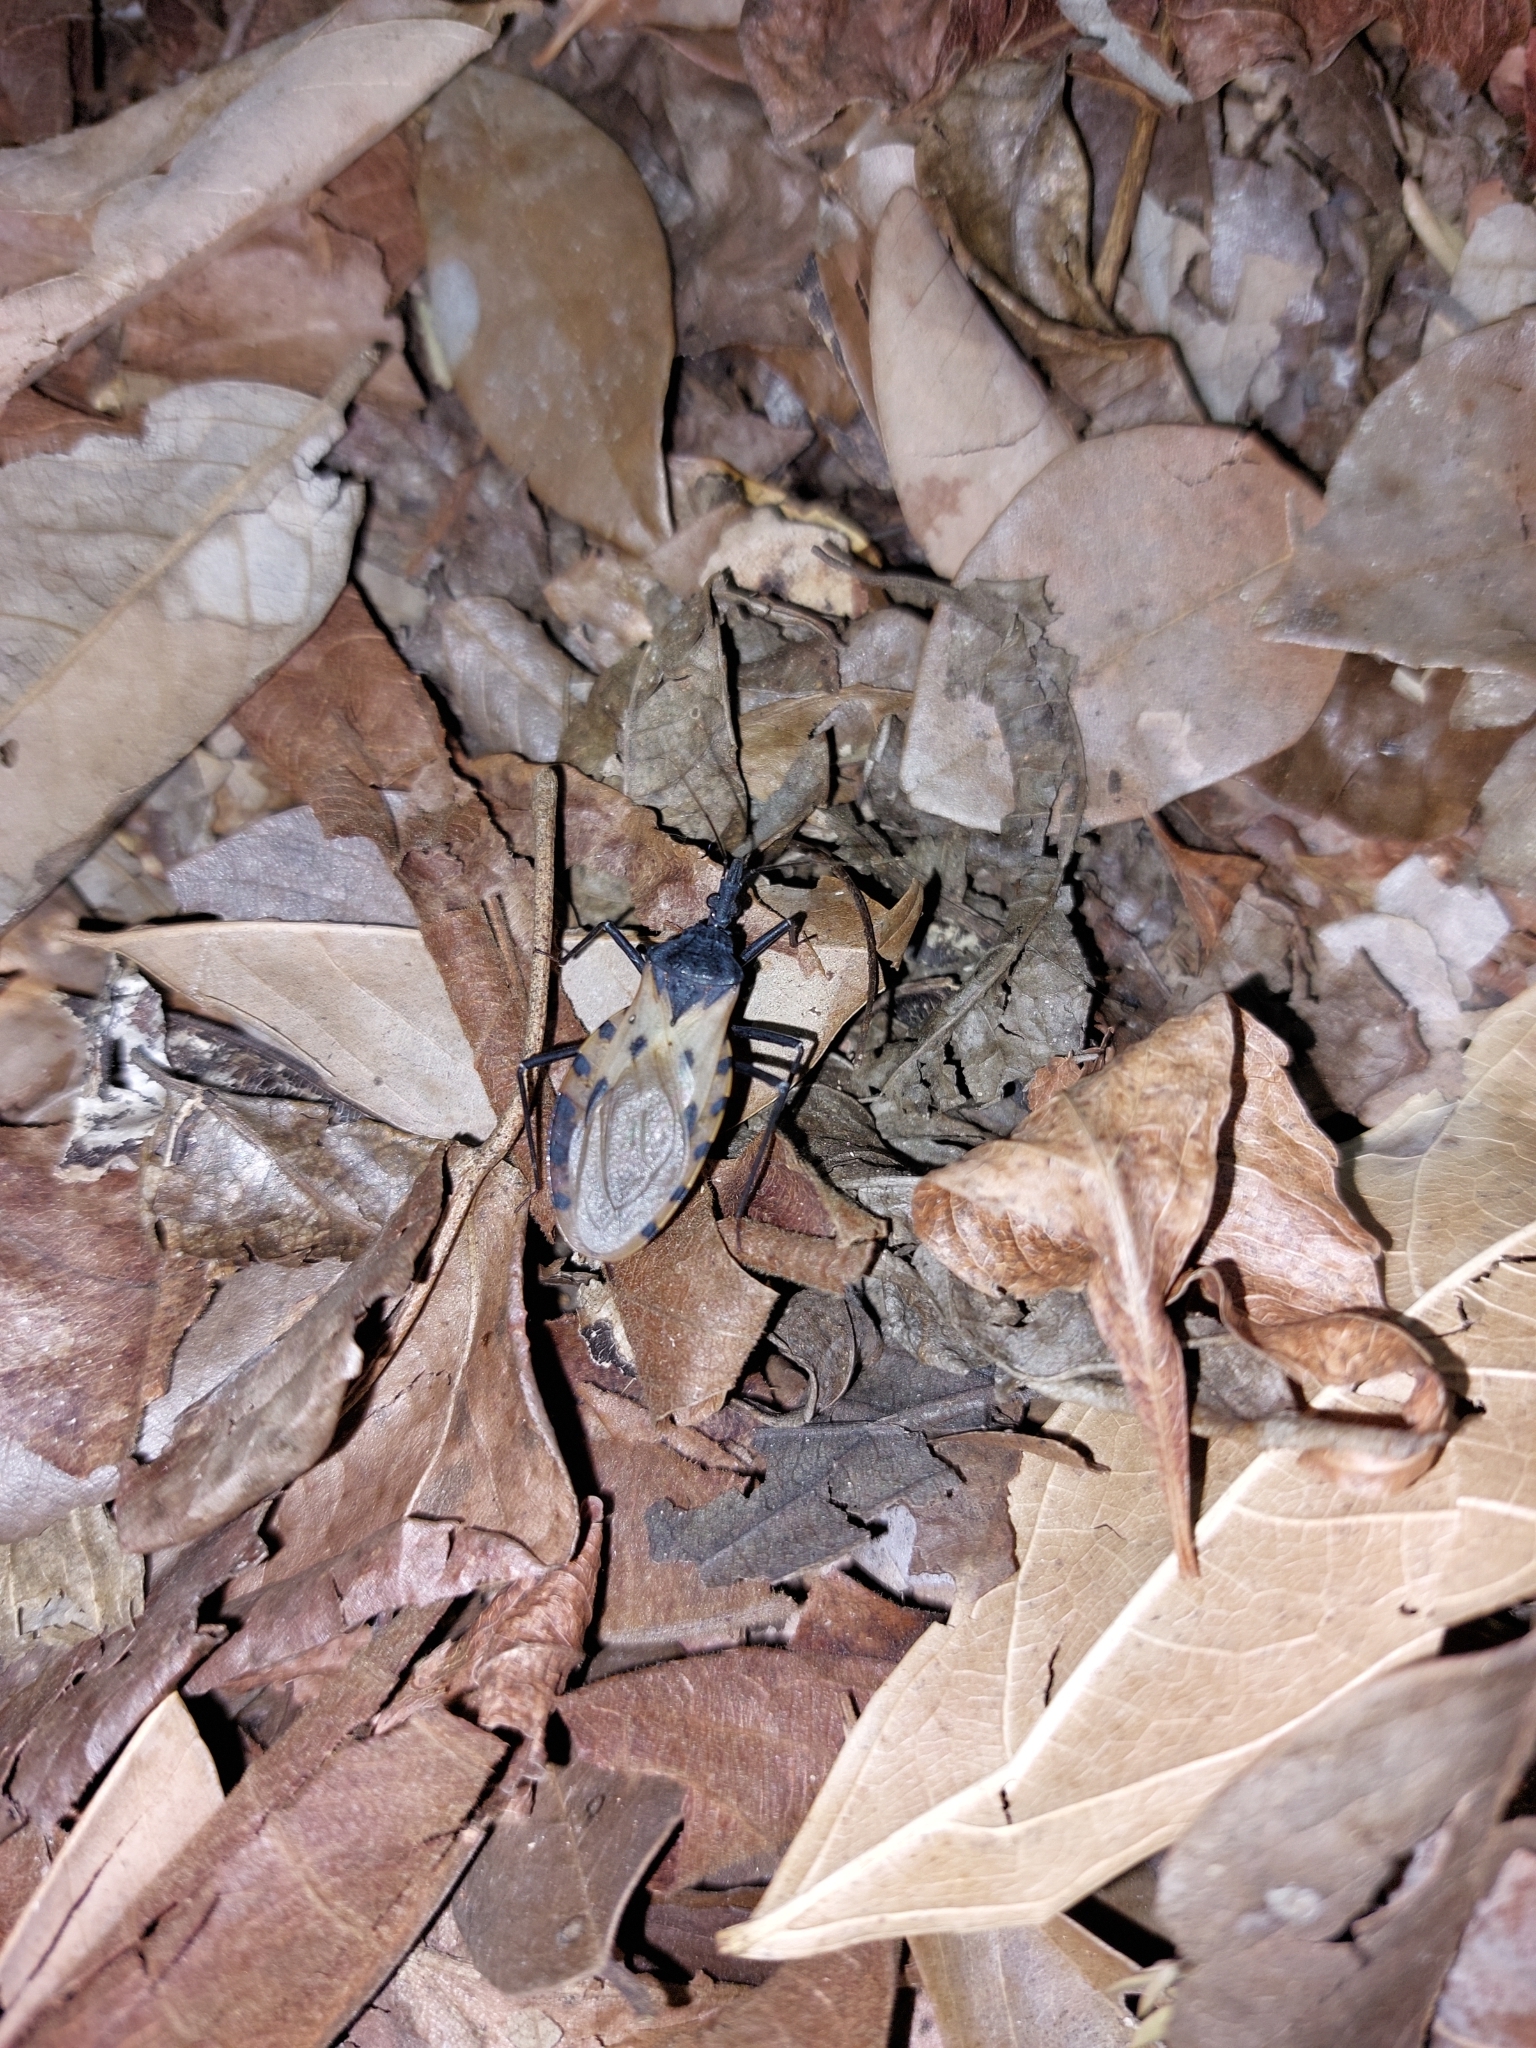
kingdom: Animalia
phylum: Arthropoda
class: Insecta
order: Hemiptera
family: Reduviidae
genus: Meccus
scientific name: Meccus dimidiatus
